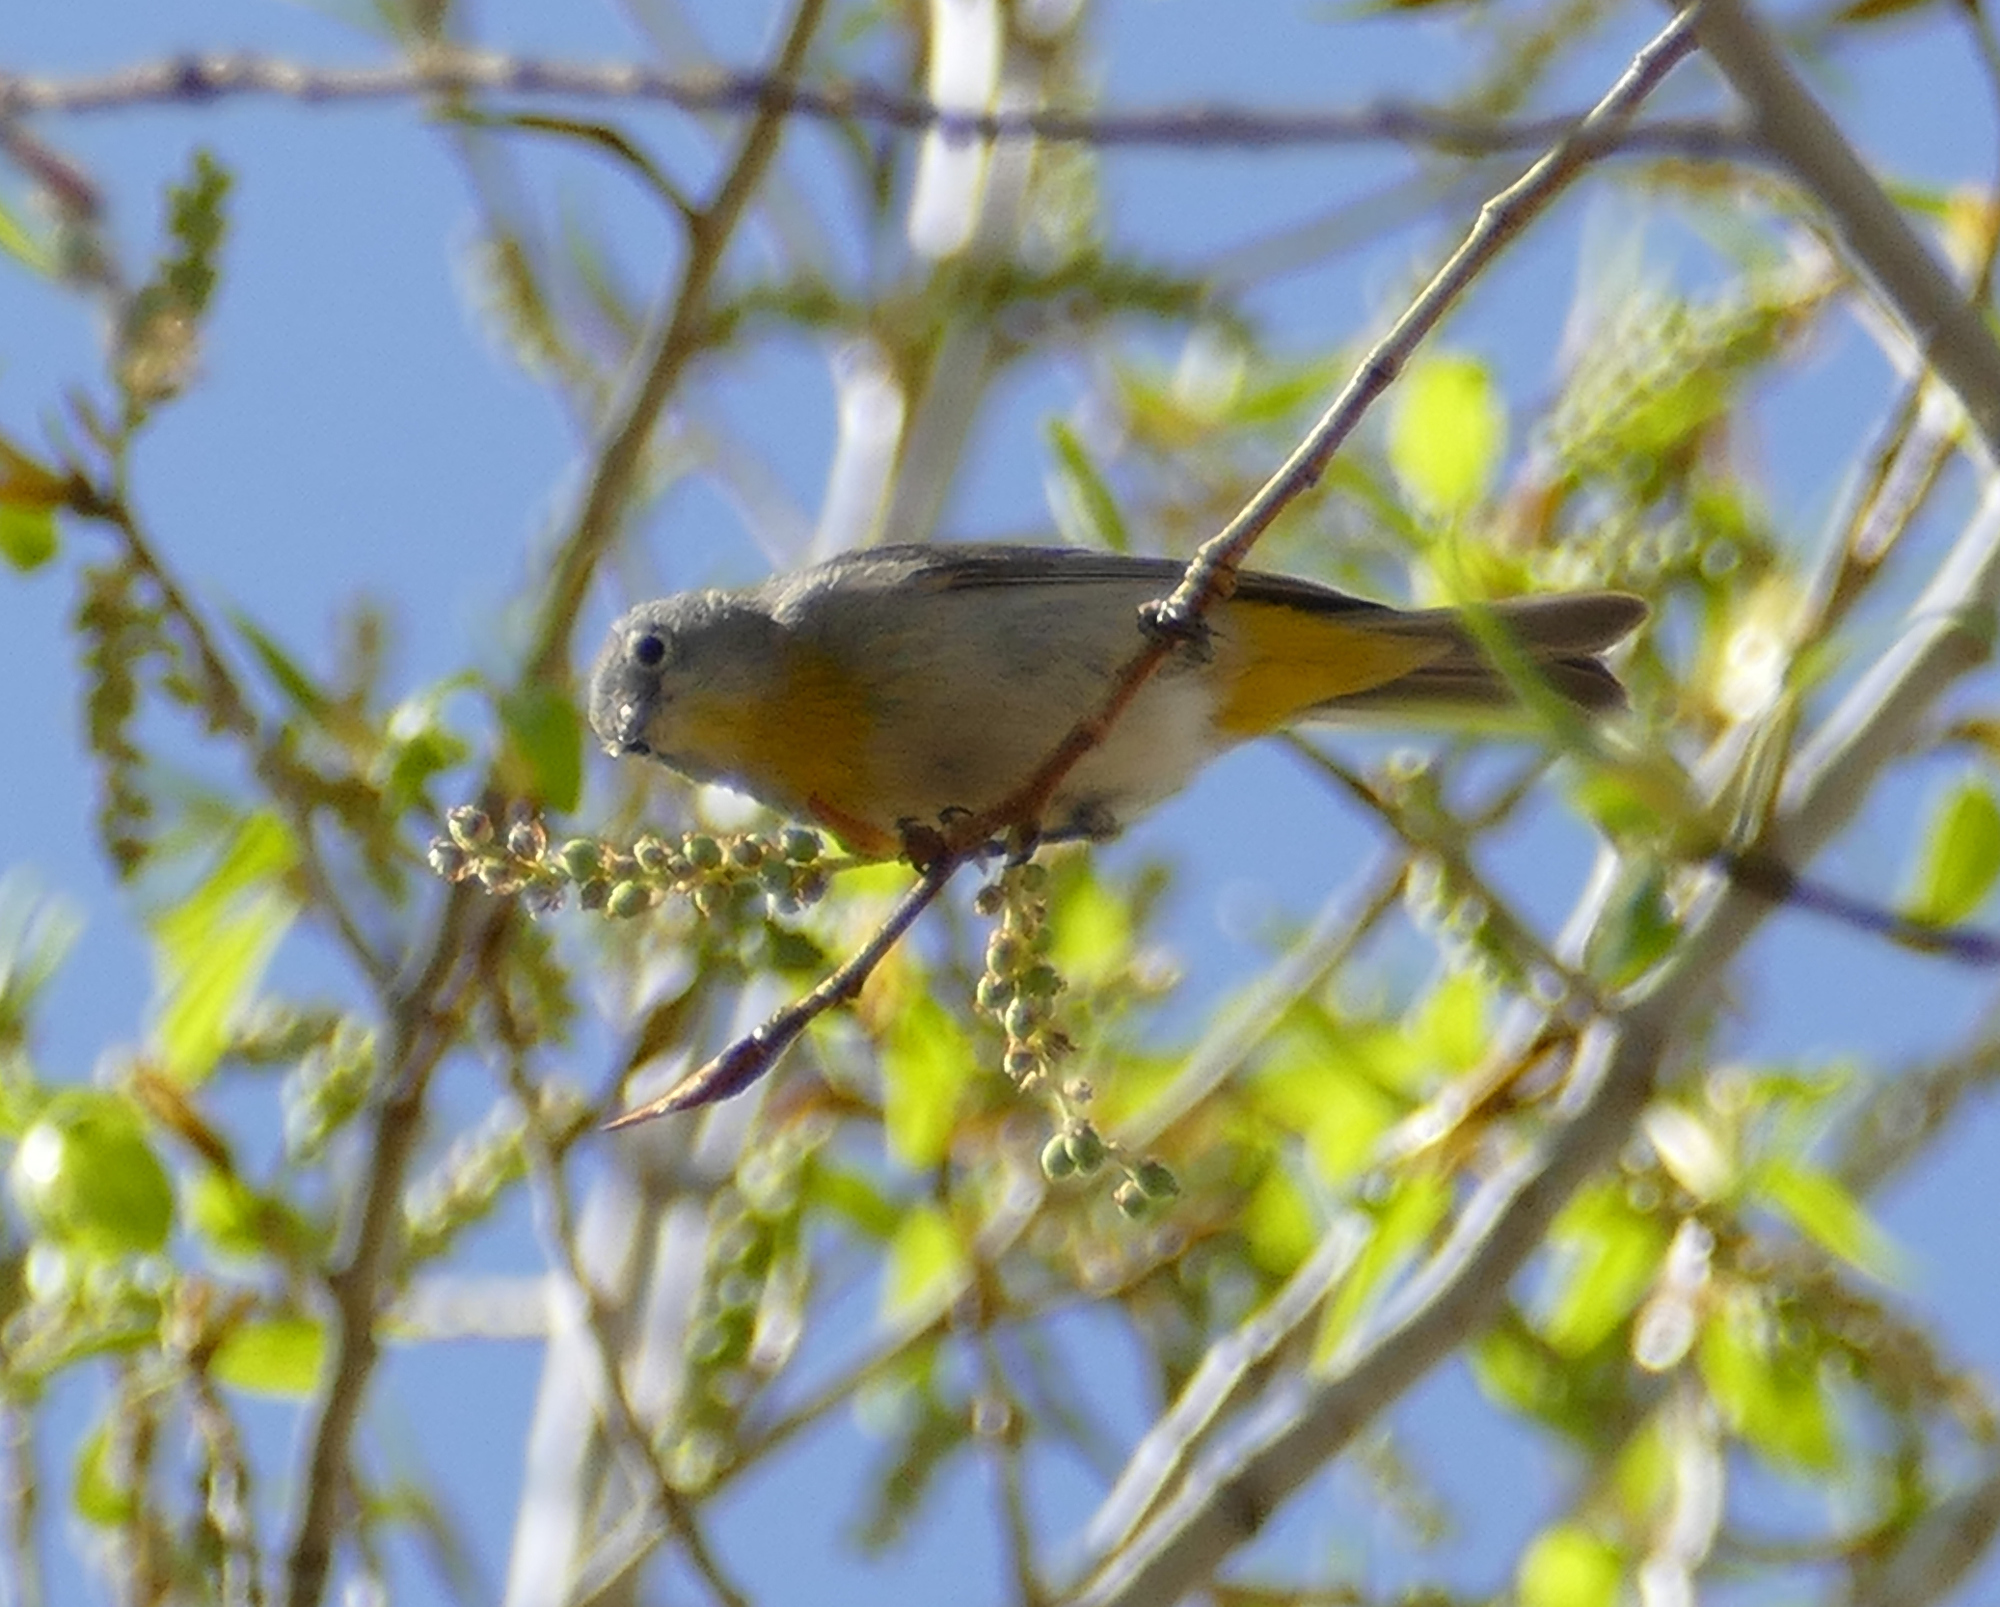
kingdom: Animalia
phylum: Chordata
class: Aves
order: Passeriformes
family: Parulidae
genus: Leiothlypis
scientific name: Leiothlypis virginiae
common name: Virginia's warbler
